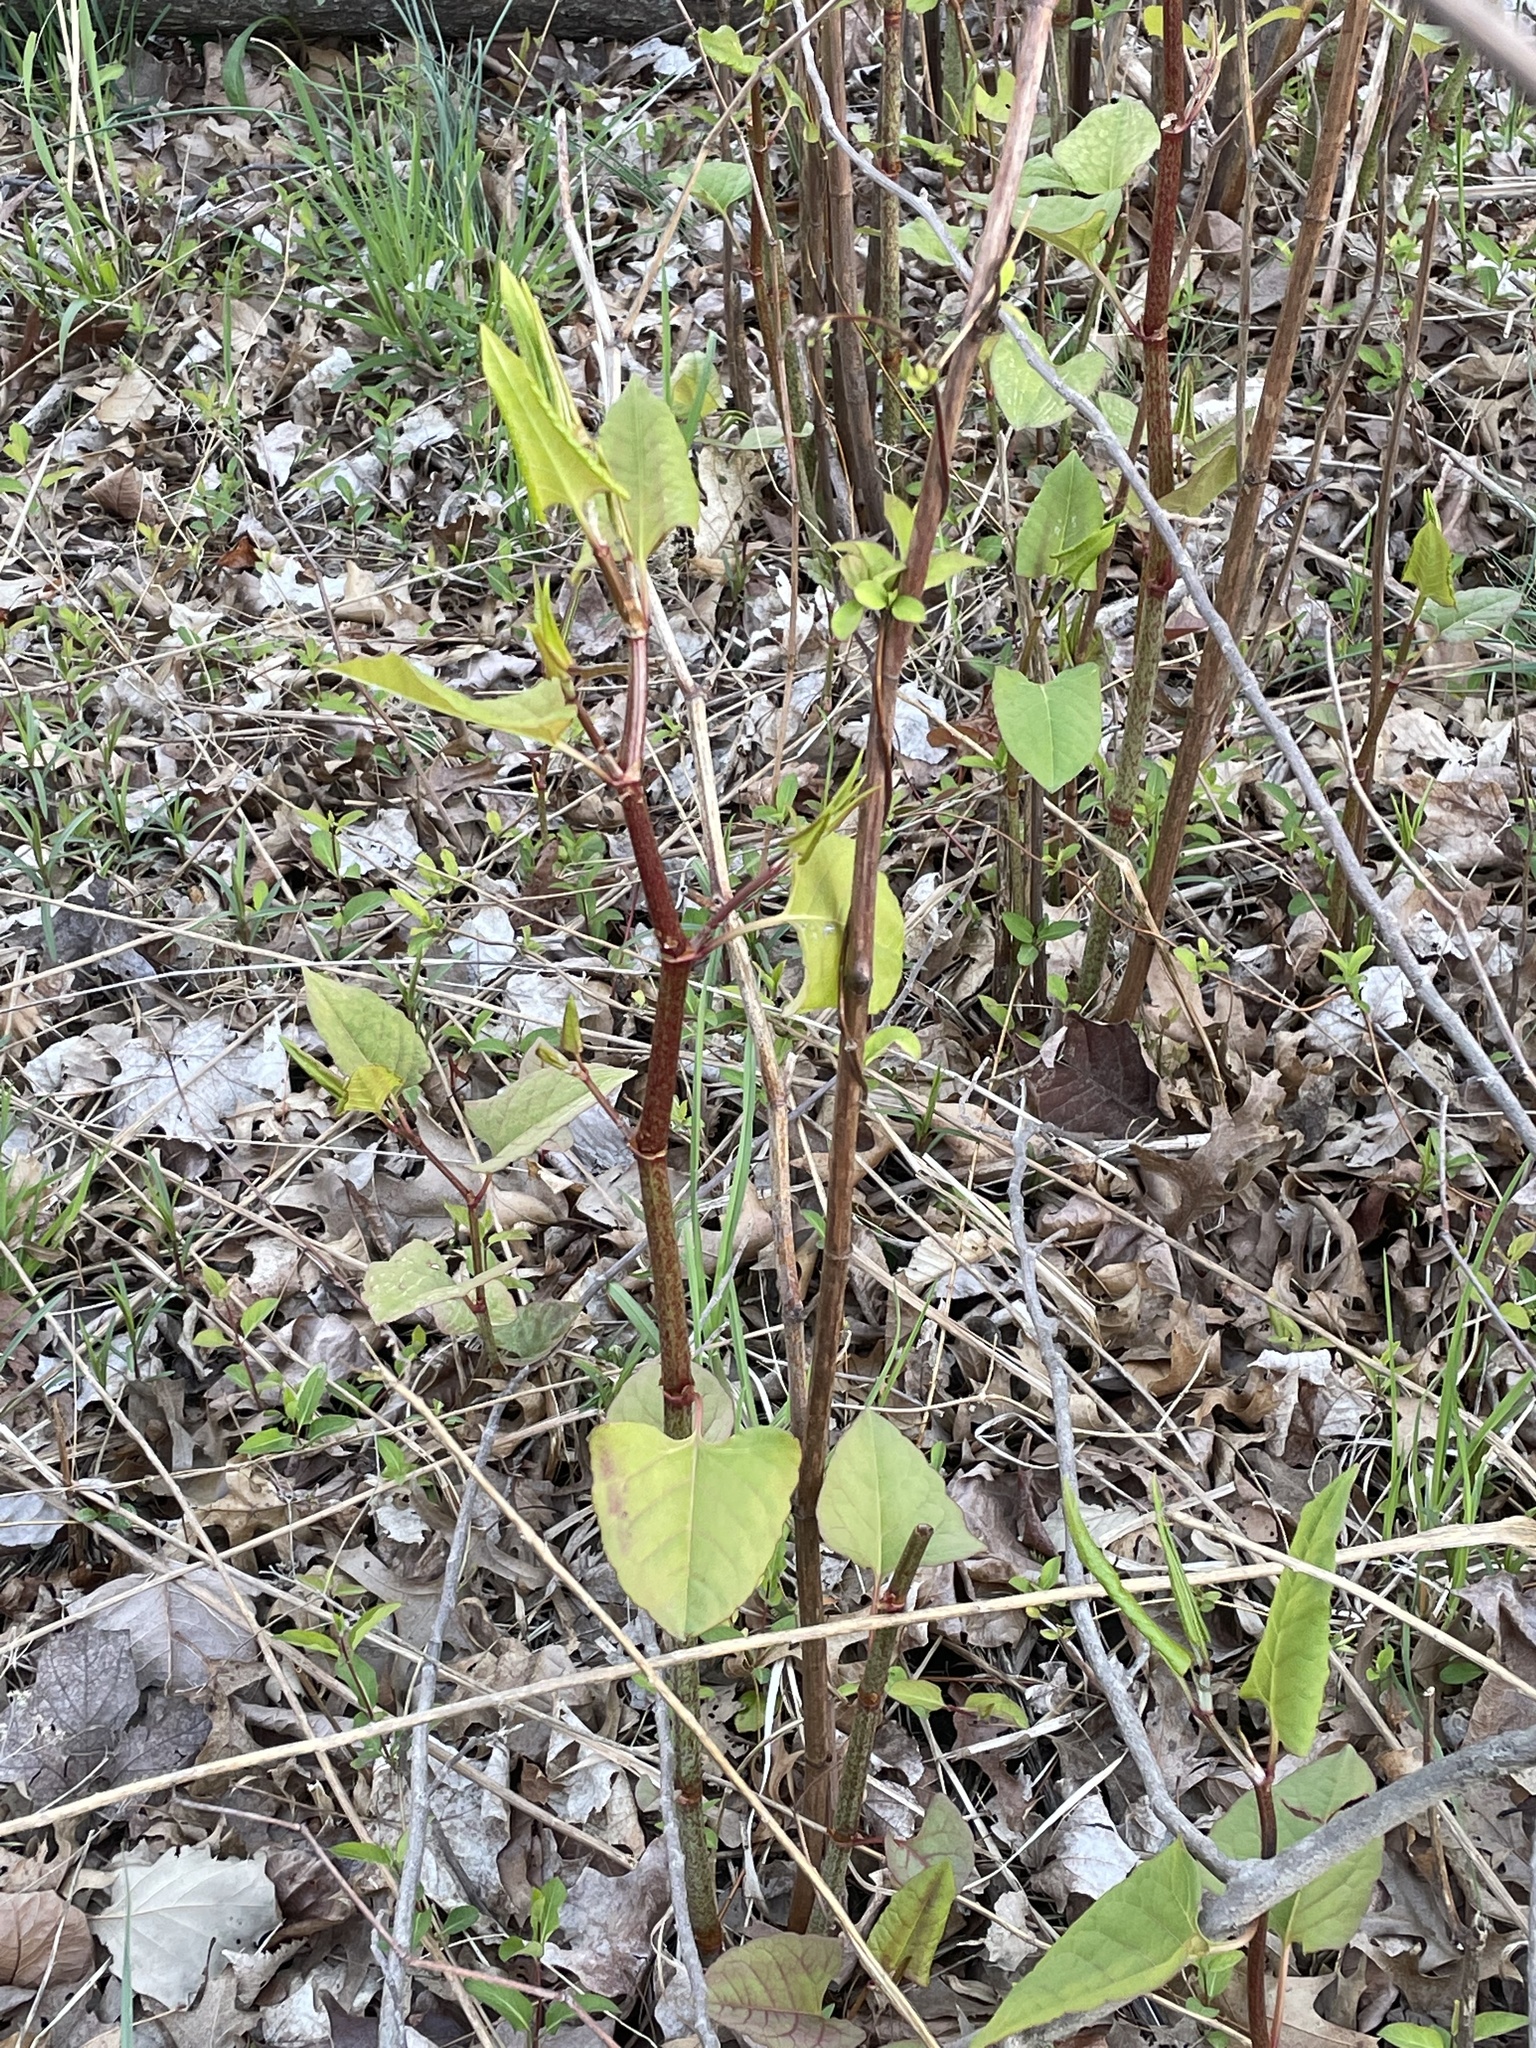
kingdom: Plantae
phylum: Tracheophyta
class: Magnoliopsida
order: Caryophyllales
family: Polygonaceae
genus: Reynoutria
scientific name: Reynoutria japonica
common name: Japanese knotweed
